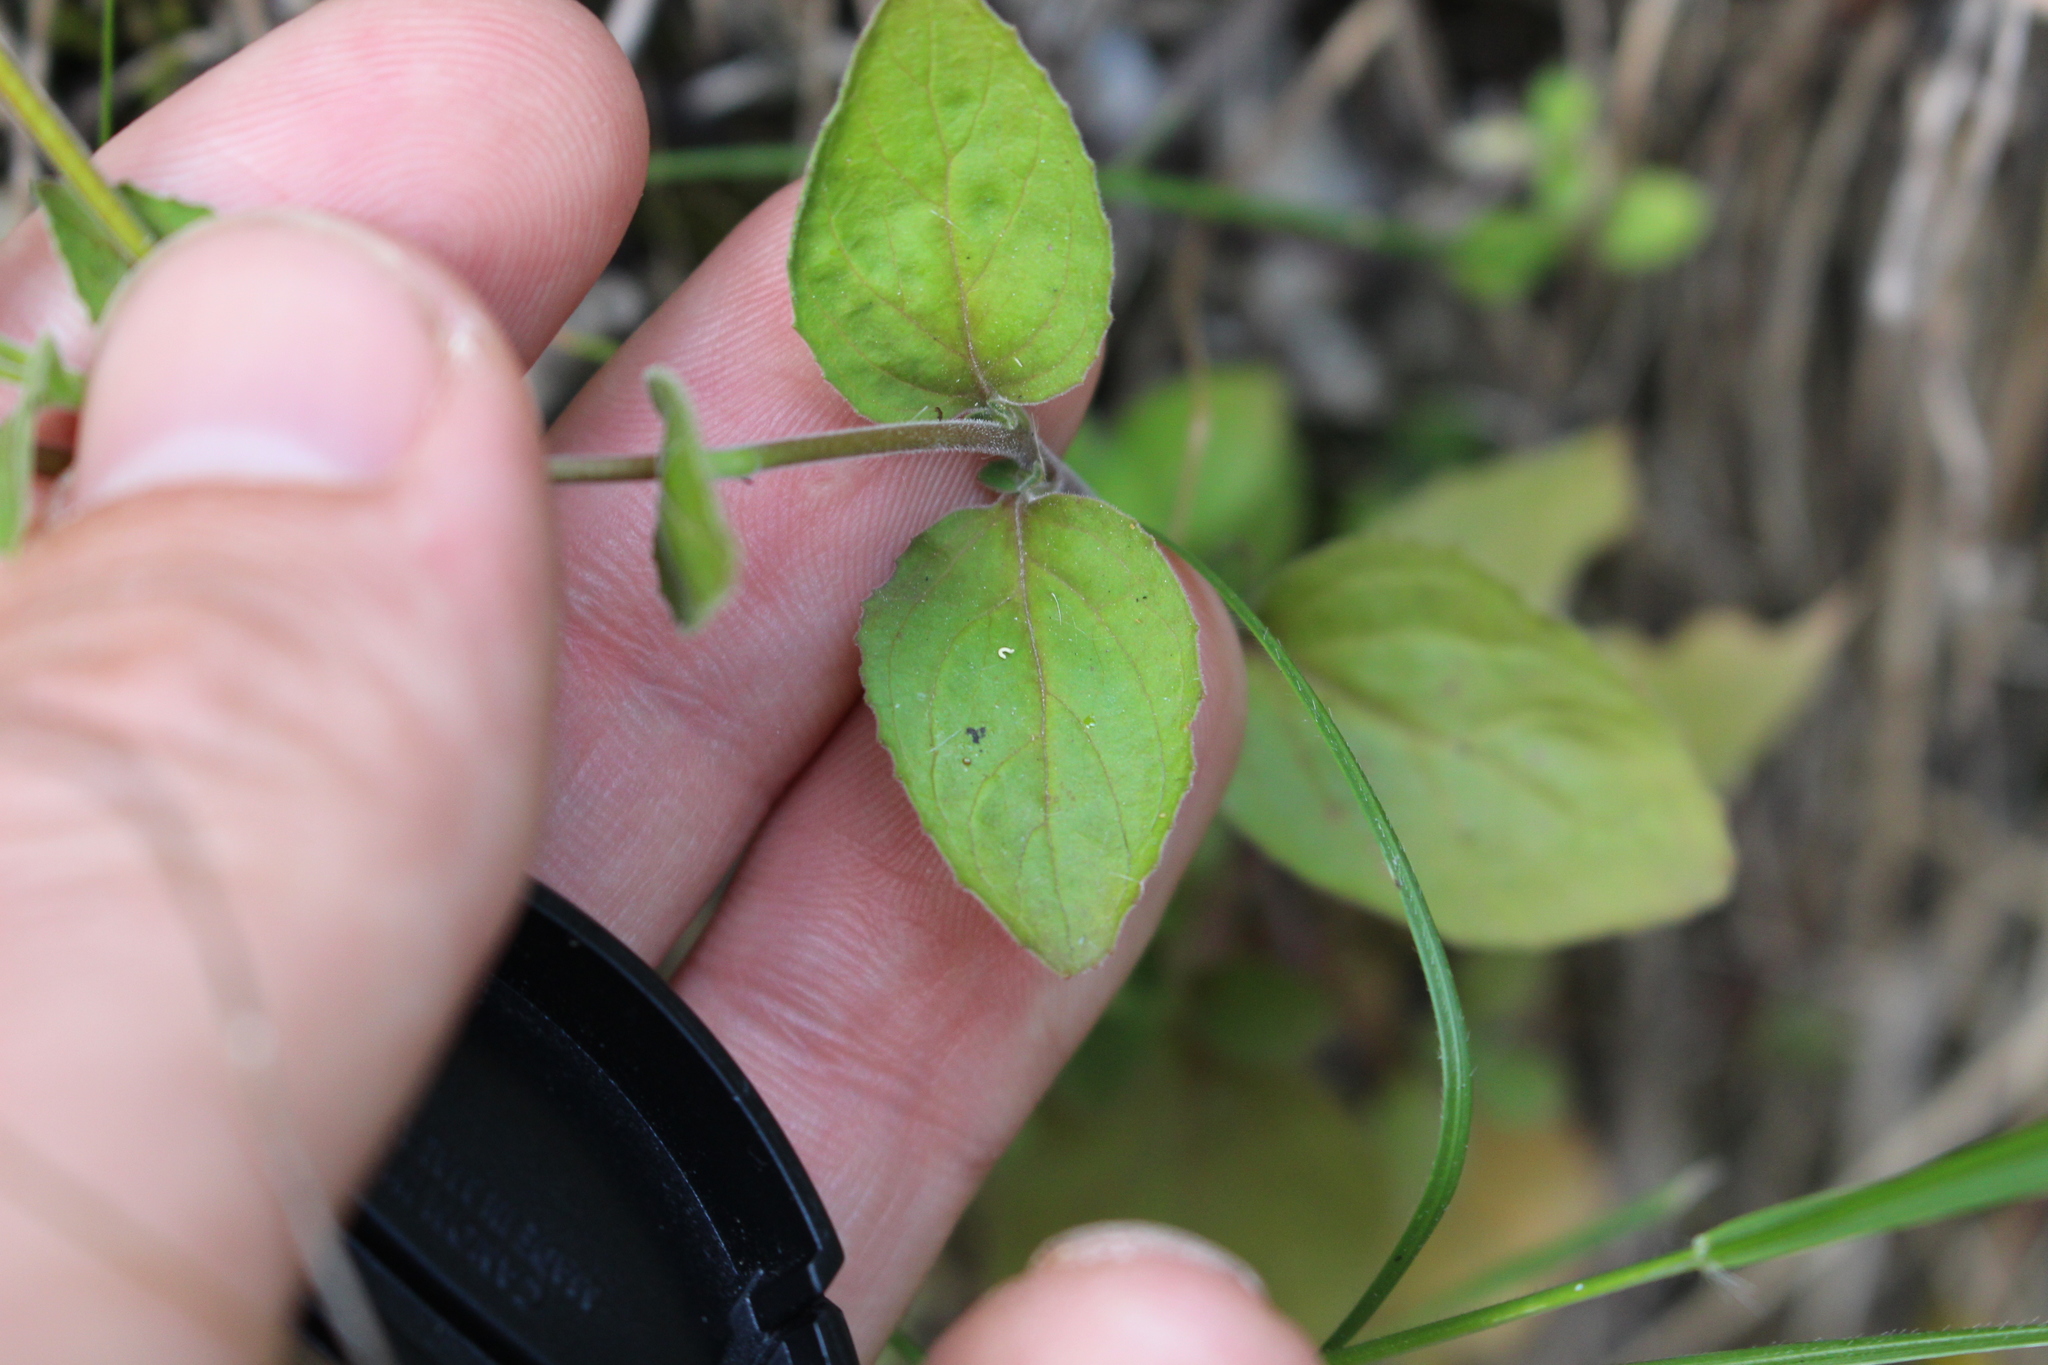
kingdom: Plantae
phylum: Tracheophyta
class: Magnoliopsida
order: Myrtales
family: Onagraceae
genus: Epilobium
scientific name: Epilobium pubens
